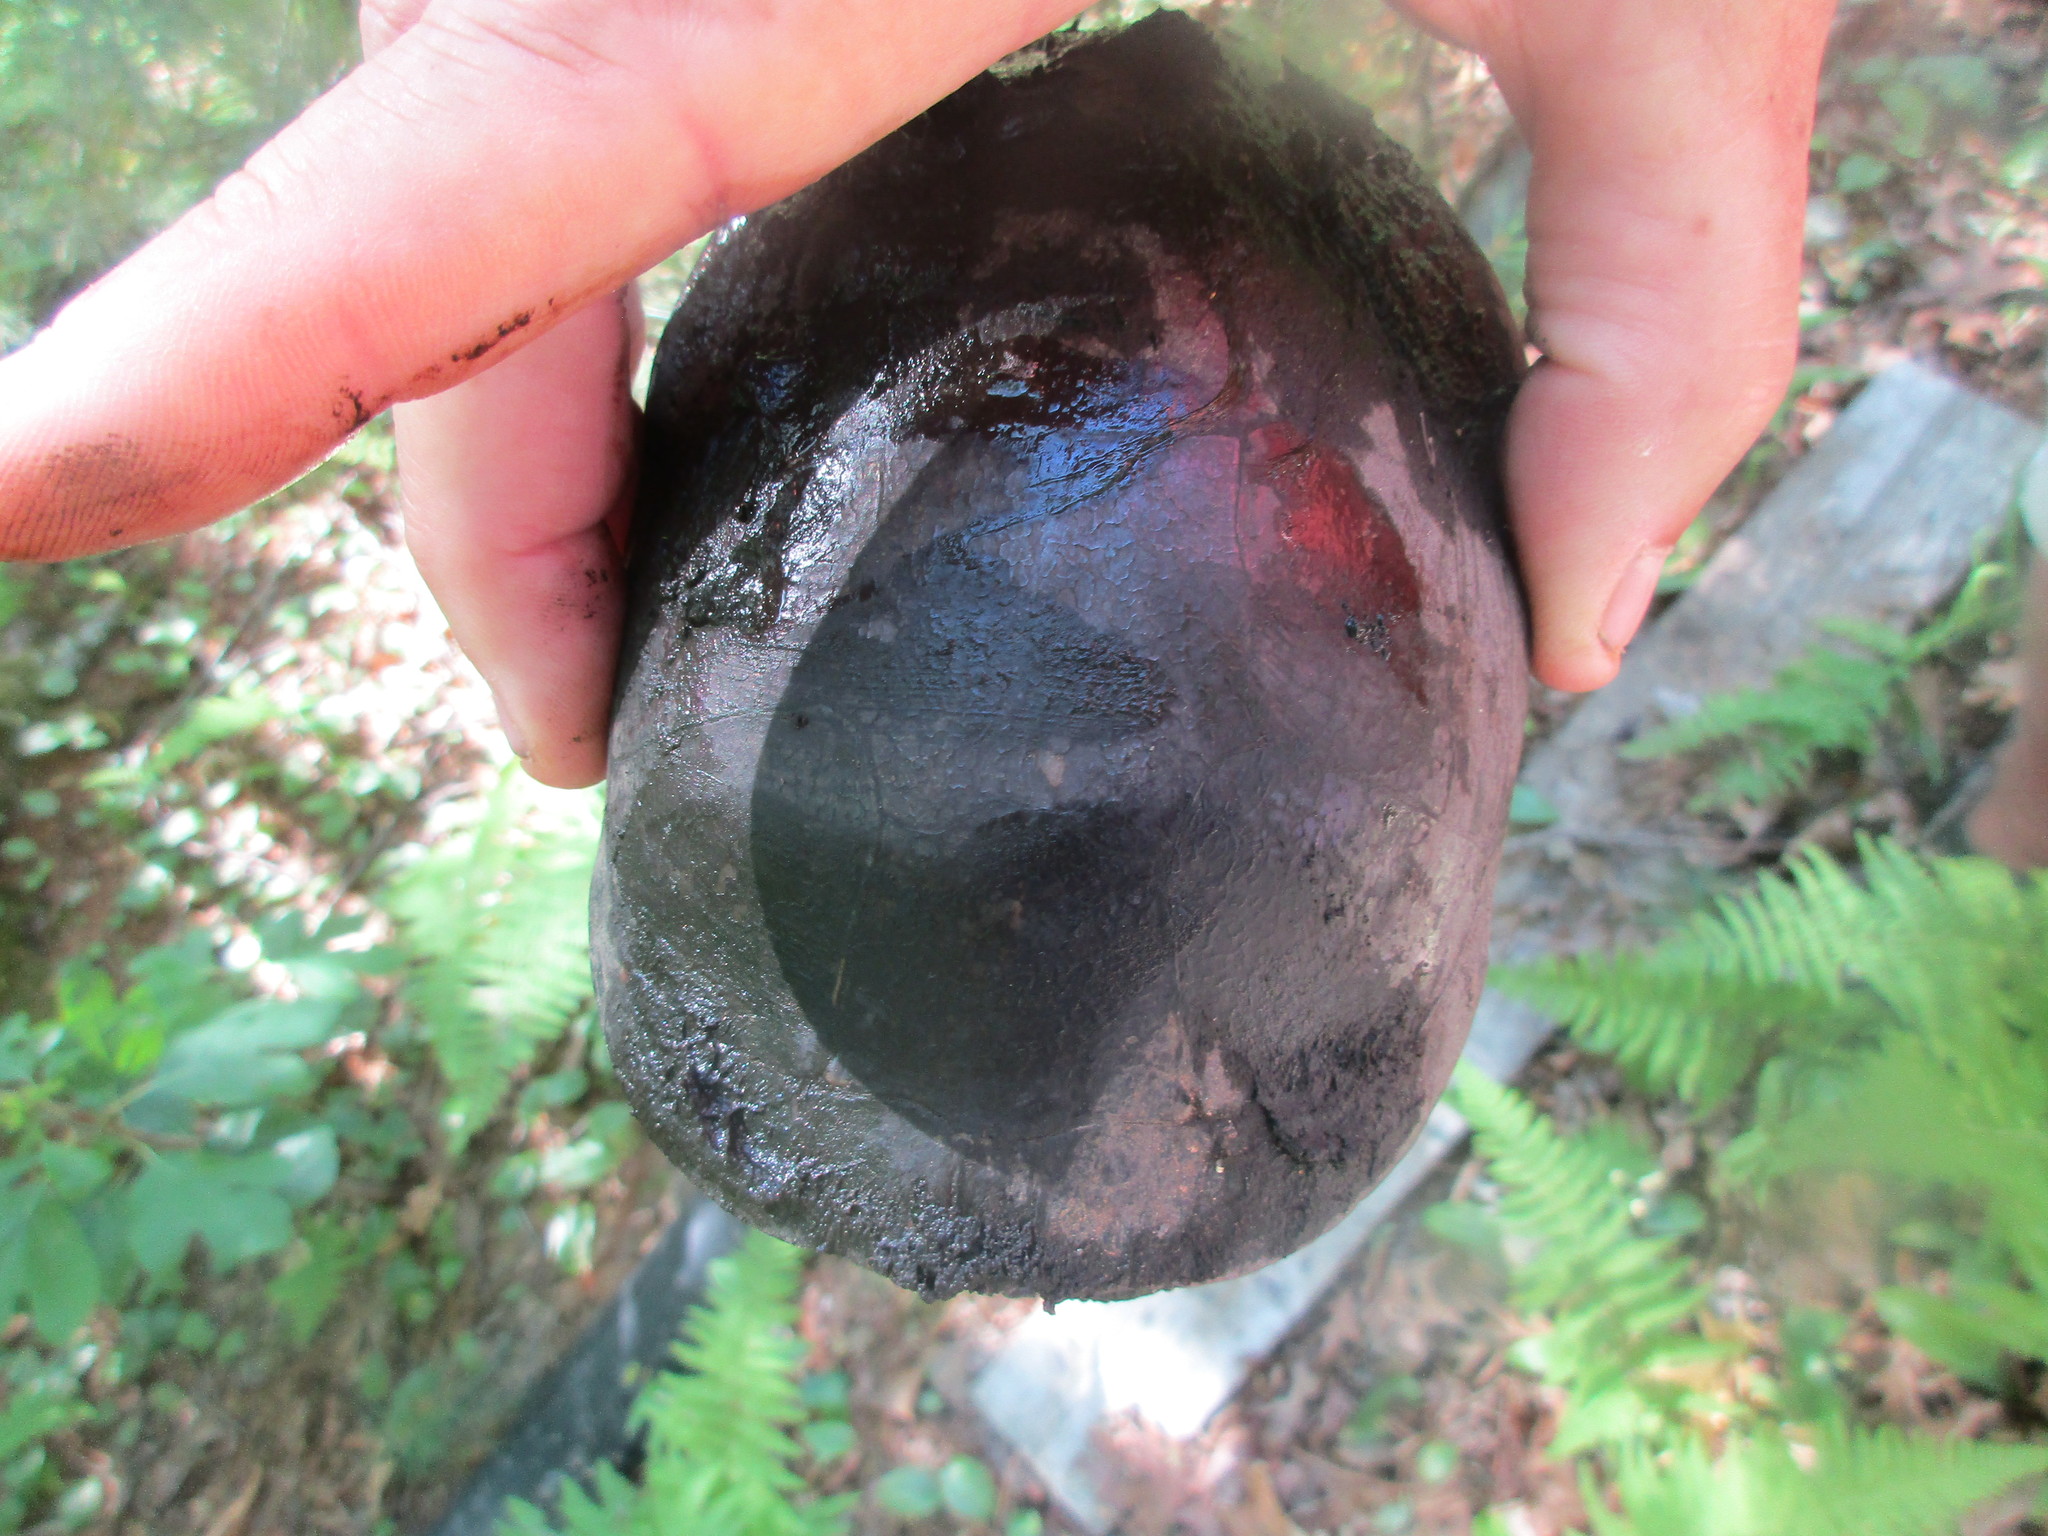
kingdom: Animalia
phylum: Chordata
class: Testudines
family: Emydidae
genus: Clemmys
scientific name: Clemmys guttata
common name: Spotted turtle
